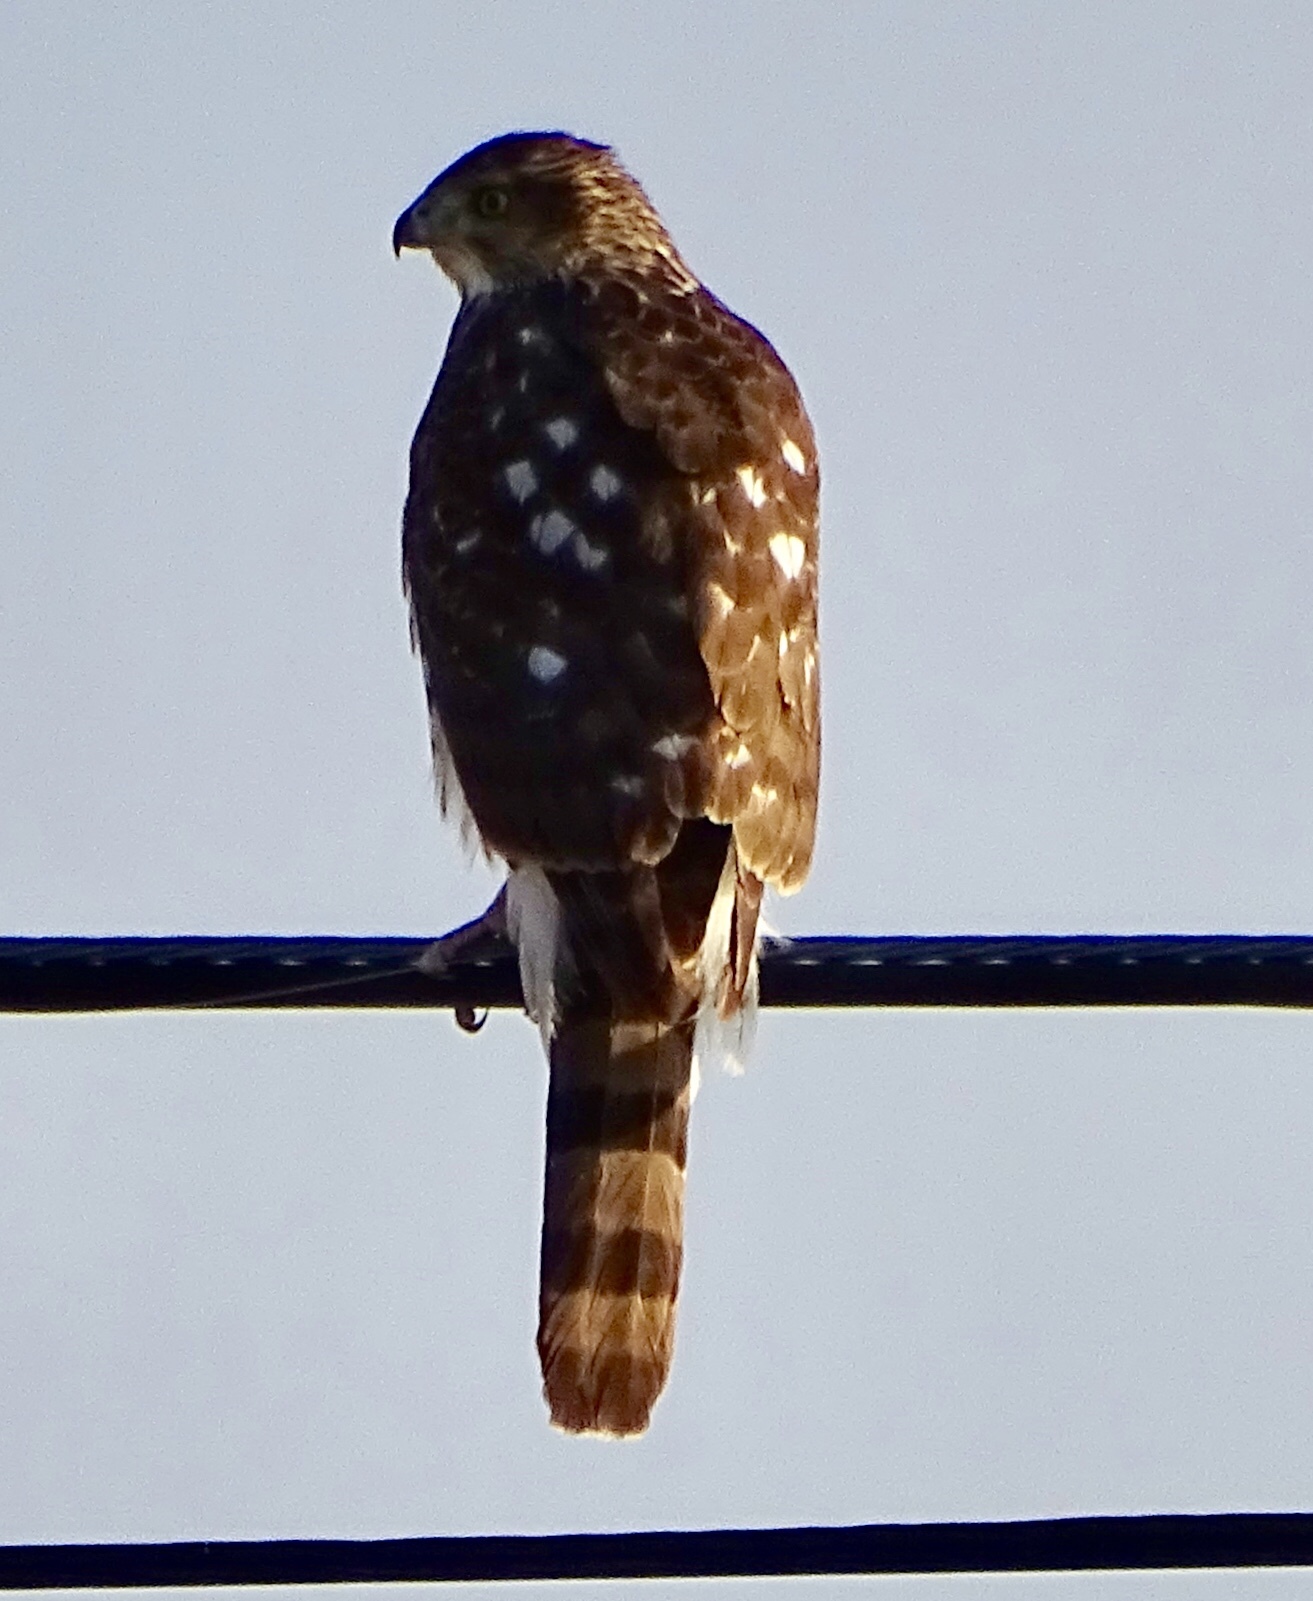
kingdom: Animalia
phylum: Chordata
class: Aves
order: Accipitriformes
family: Accipitridae
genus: Accipiter
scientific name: Accipiter cooperii
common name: Cooper's hawk
